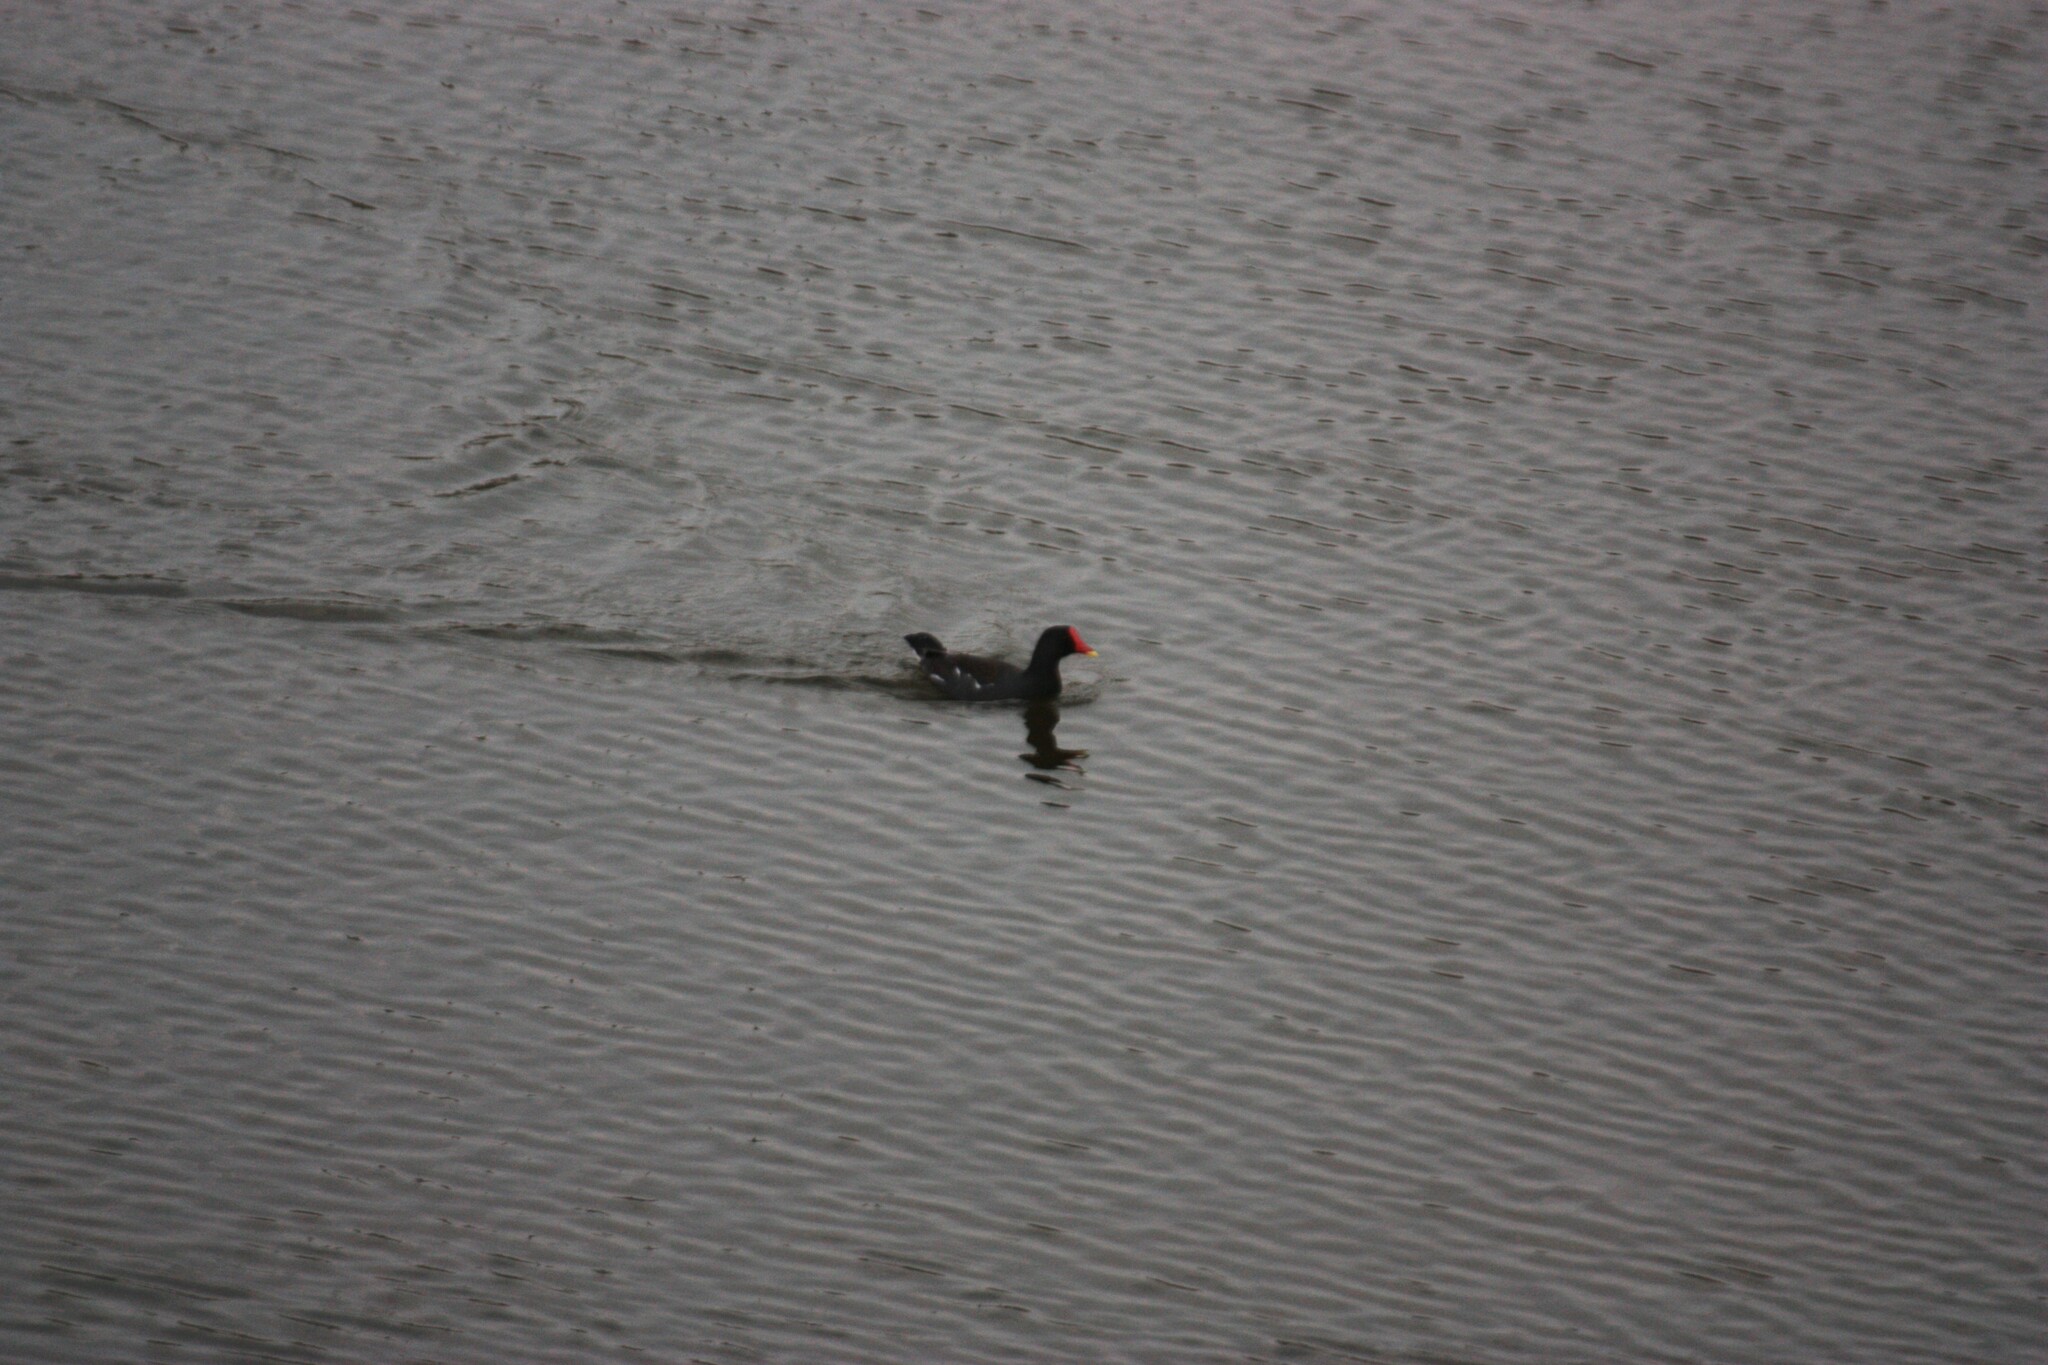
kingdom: Animalia
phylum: Chordata
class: Aves
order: Gruiformes
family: Rallidae
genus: Gallinula
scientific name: Gallinula chloropus
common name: Common moorhen
